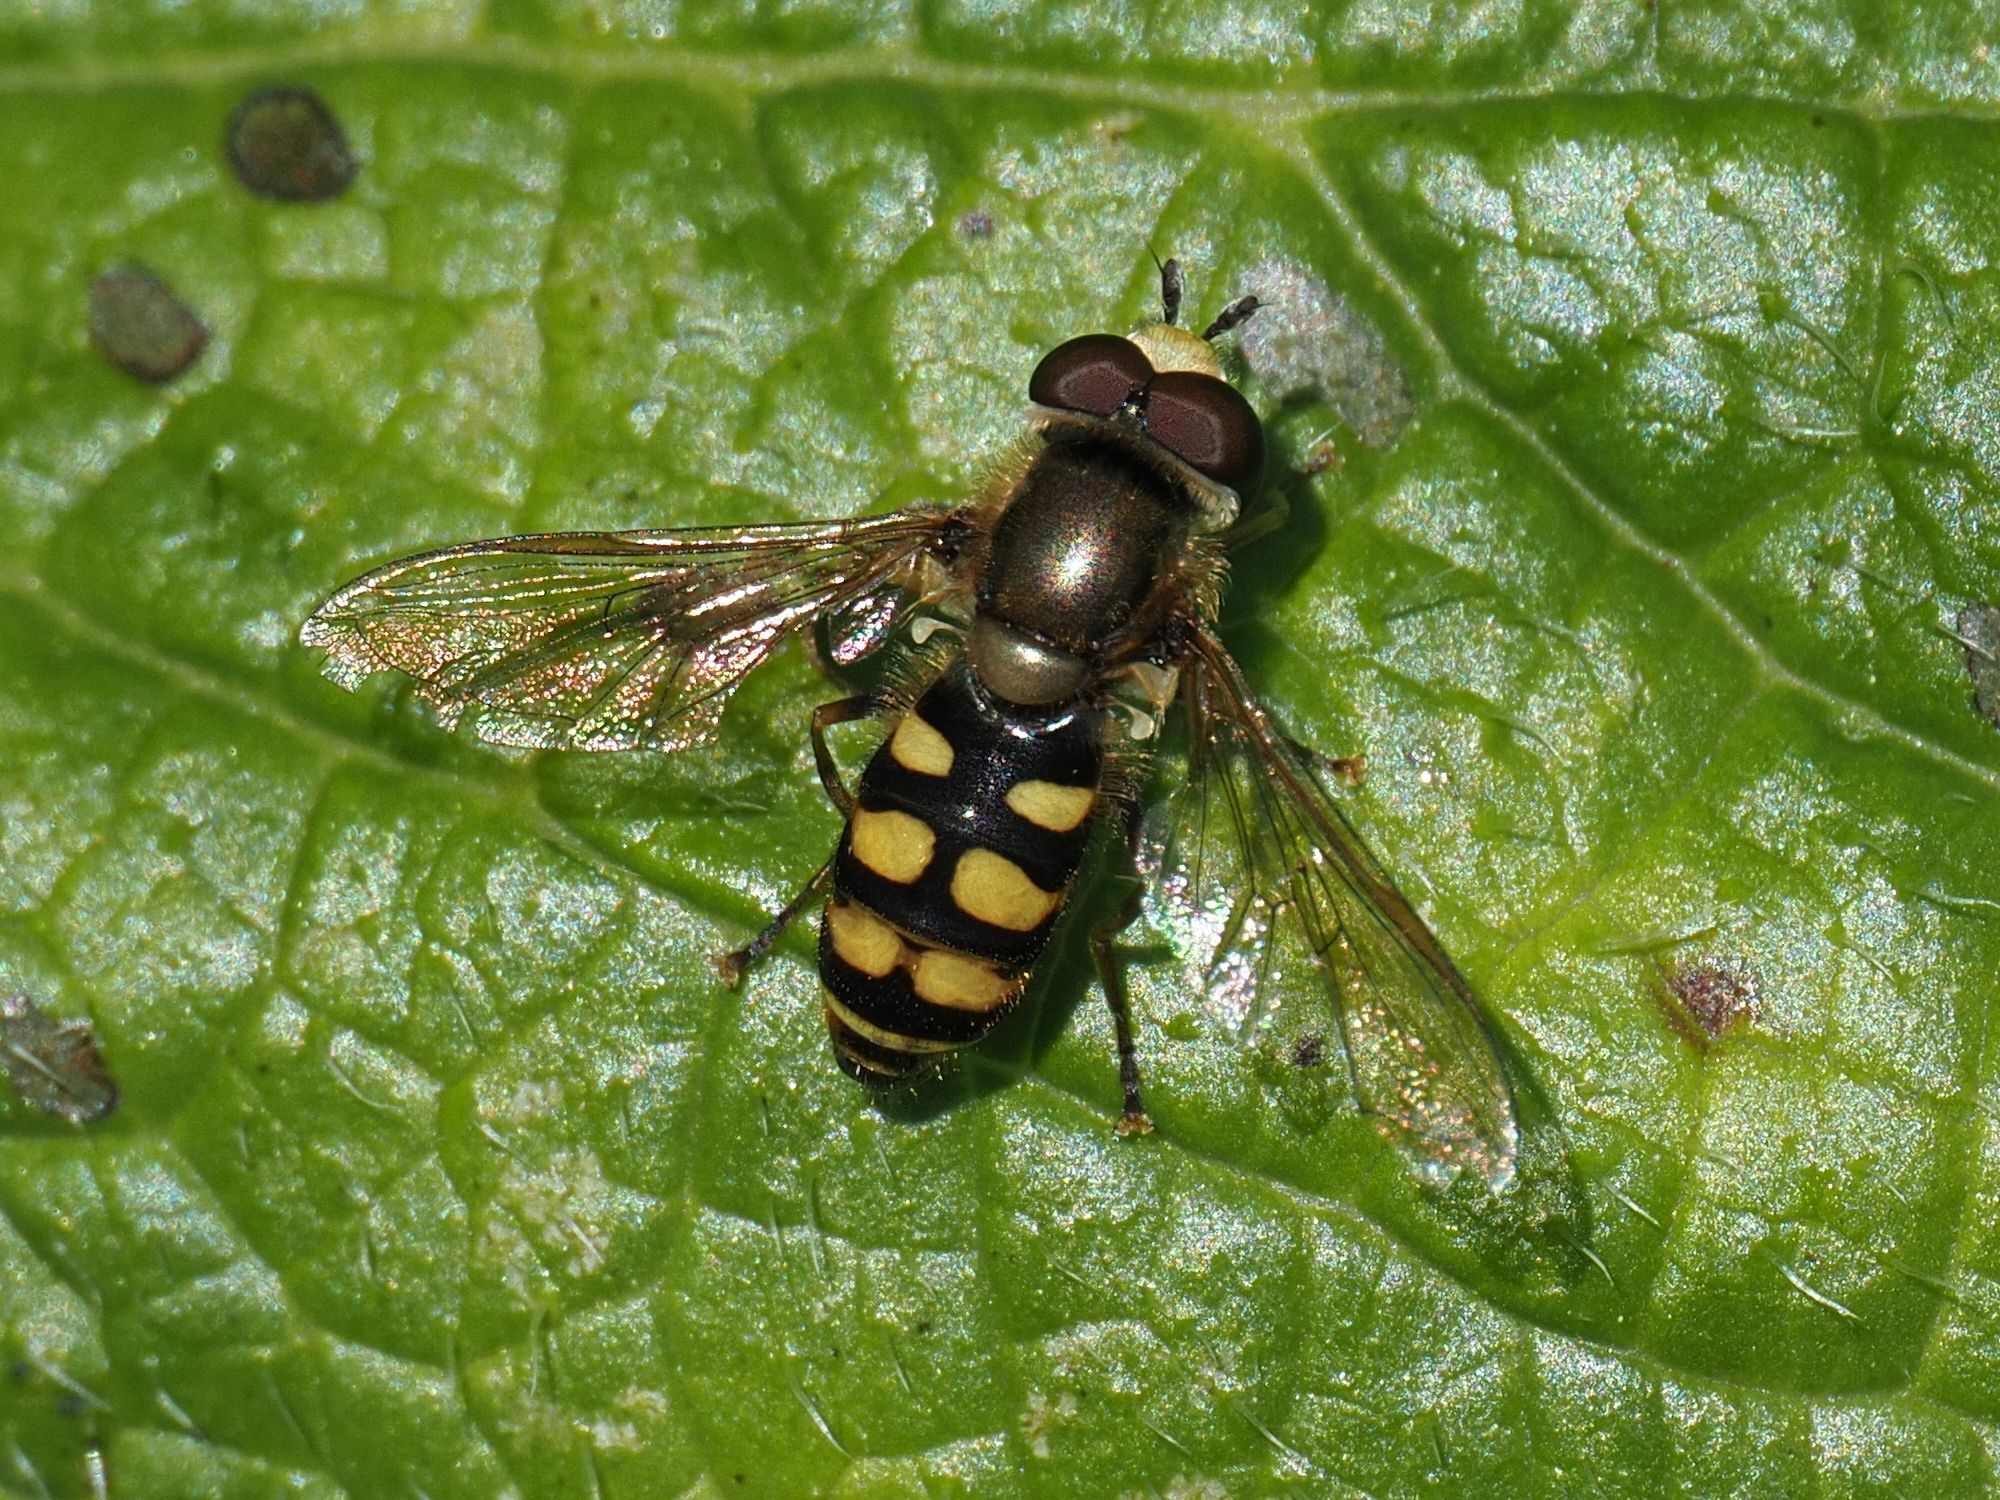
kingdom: Animalia
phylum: Arthropoda
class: Insecta
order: Diptera
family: Syrphidae
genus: Eupeodes
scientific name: Eupeodes corollae
